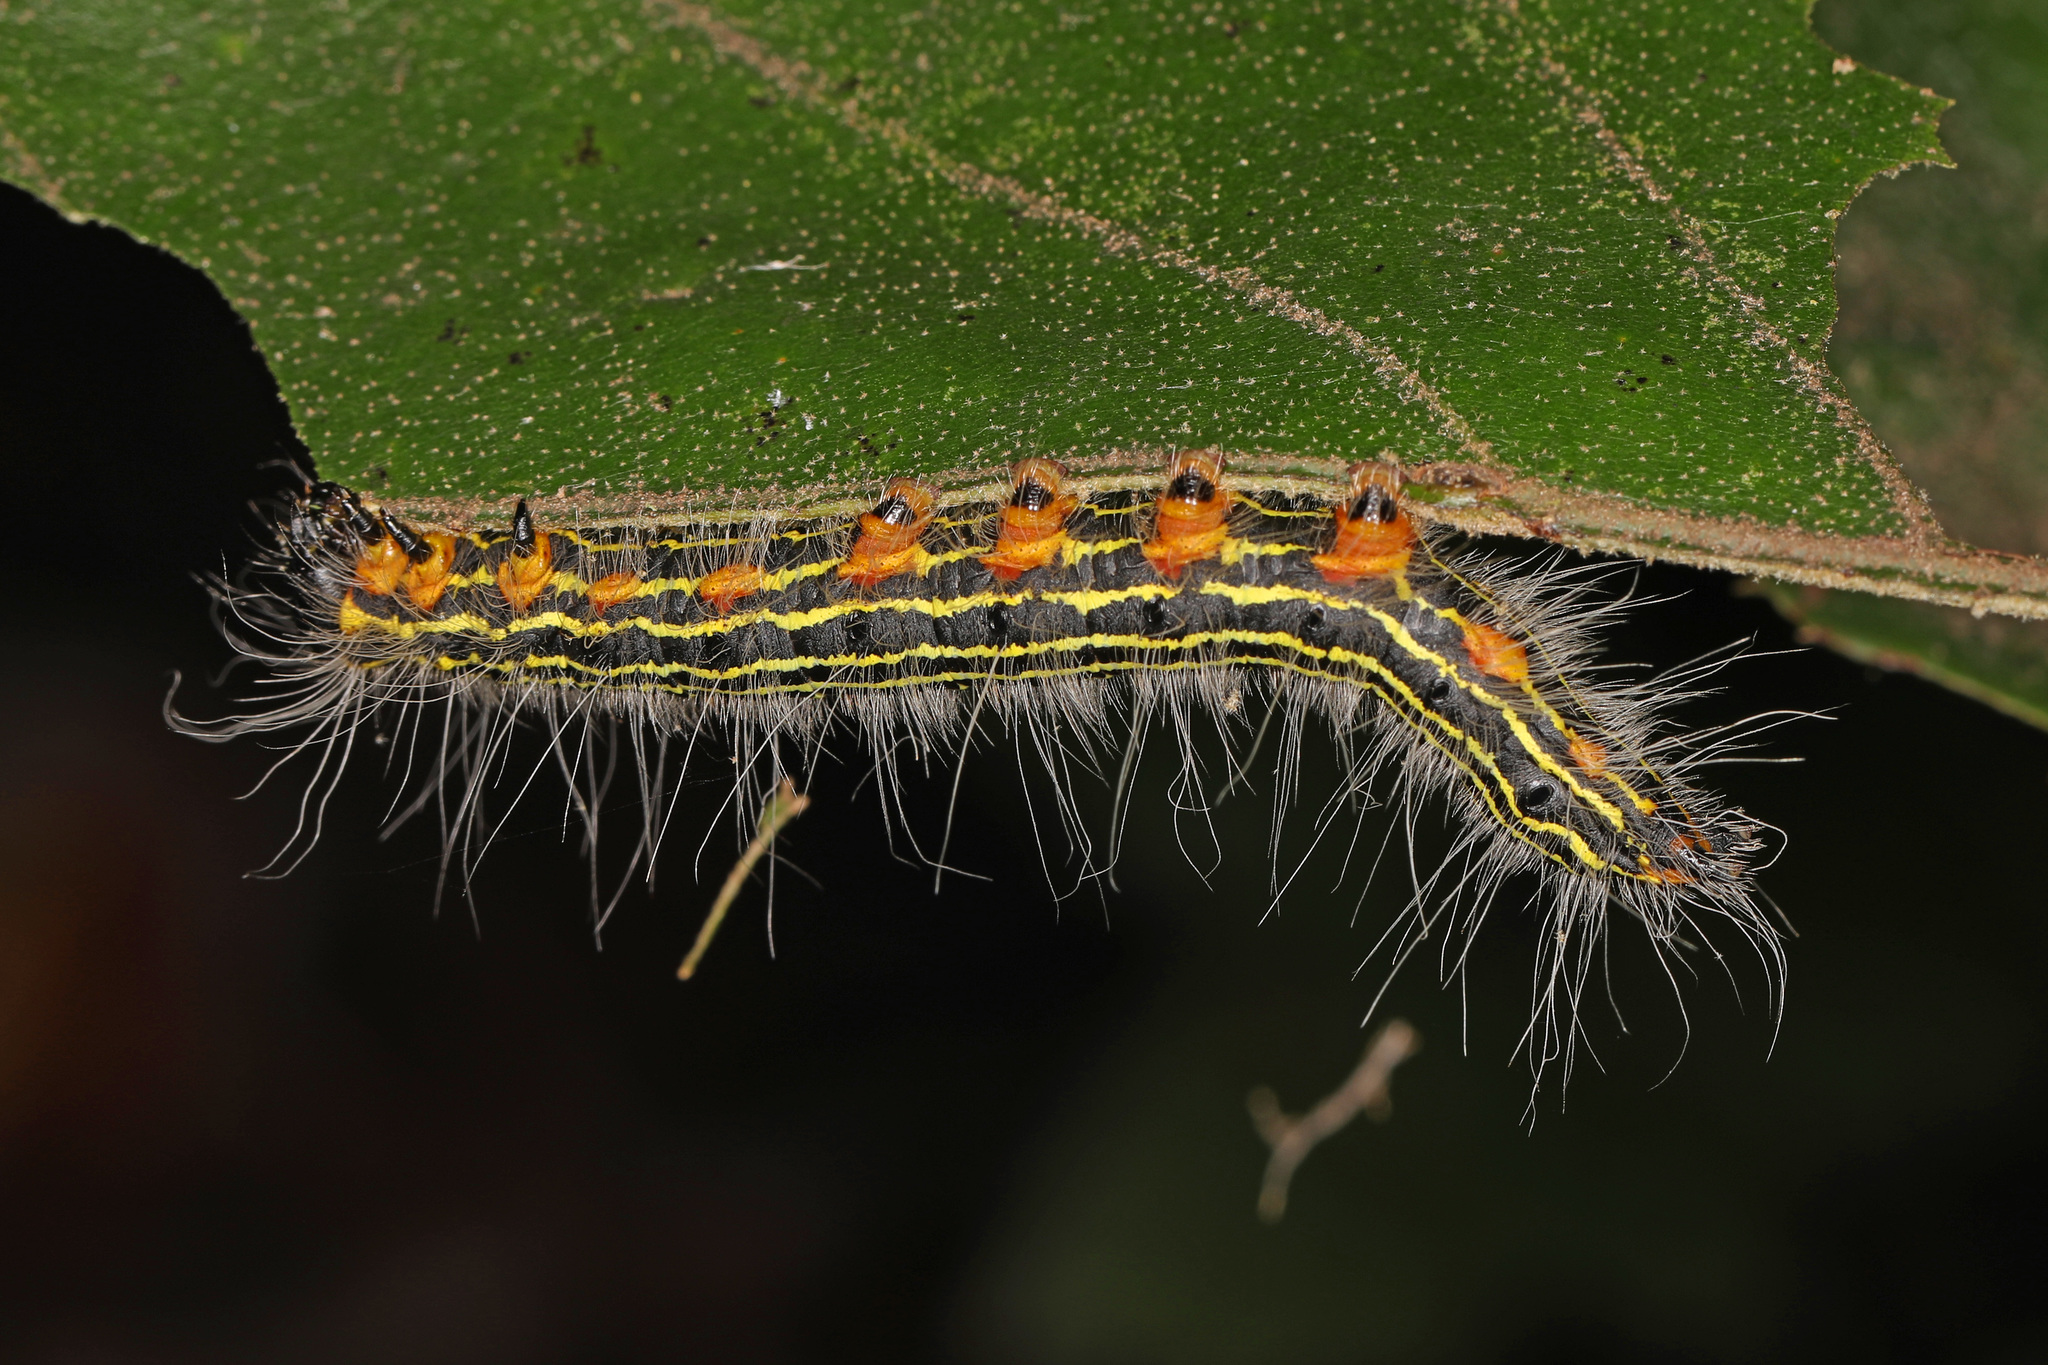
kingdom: Animalia
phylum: Arthropoda
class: Insecta
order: Lepidoptera
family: Notodontidae
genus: Datana
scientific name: Datana ministra
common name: Yellow-necked caterpillar moth
